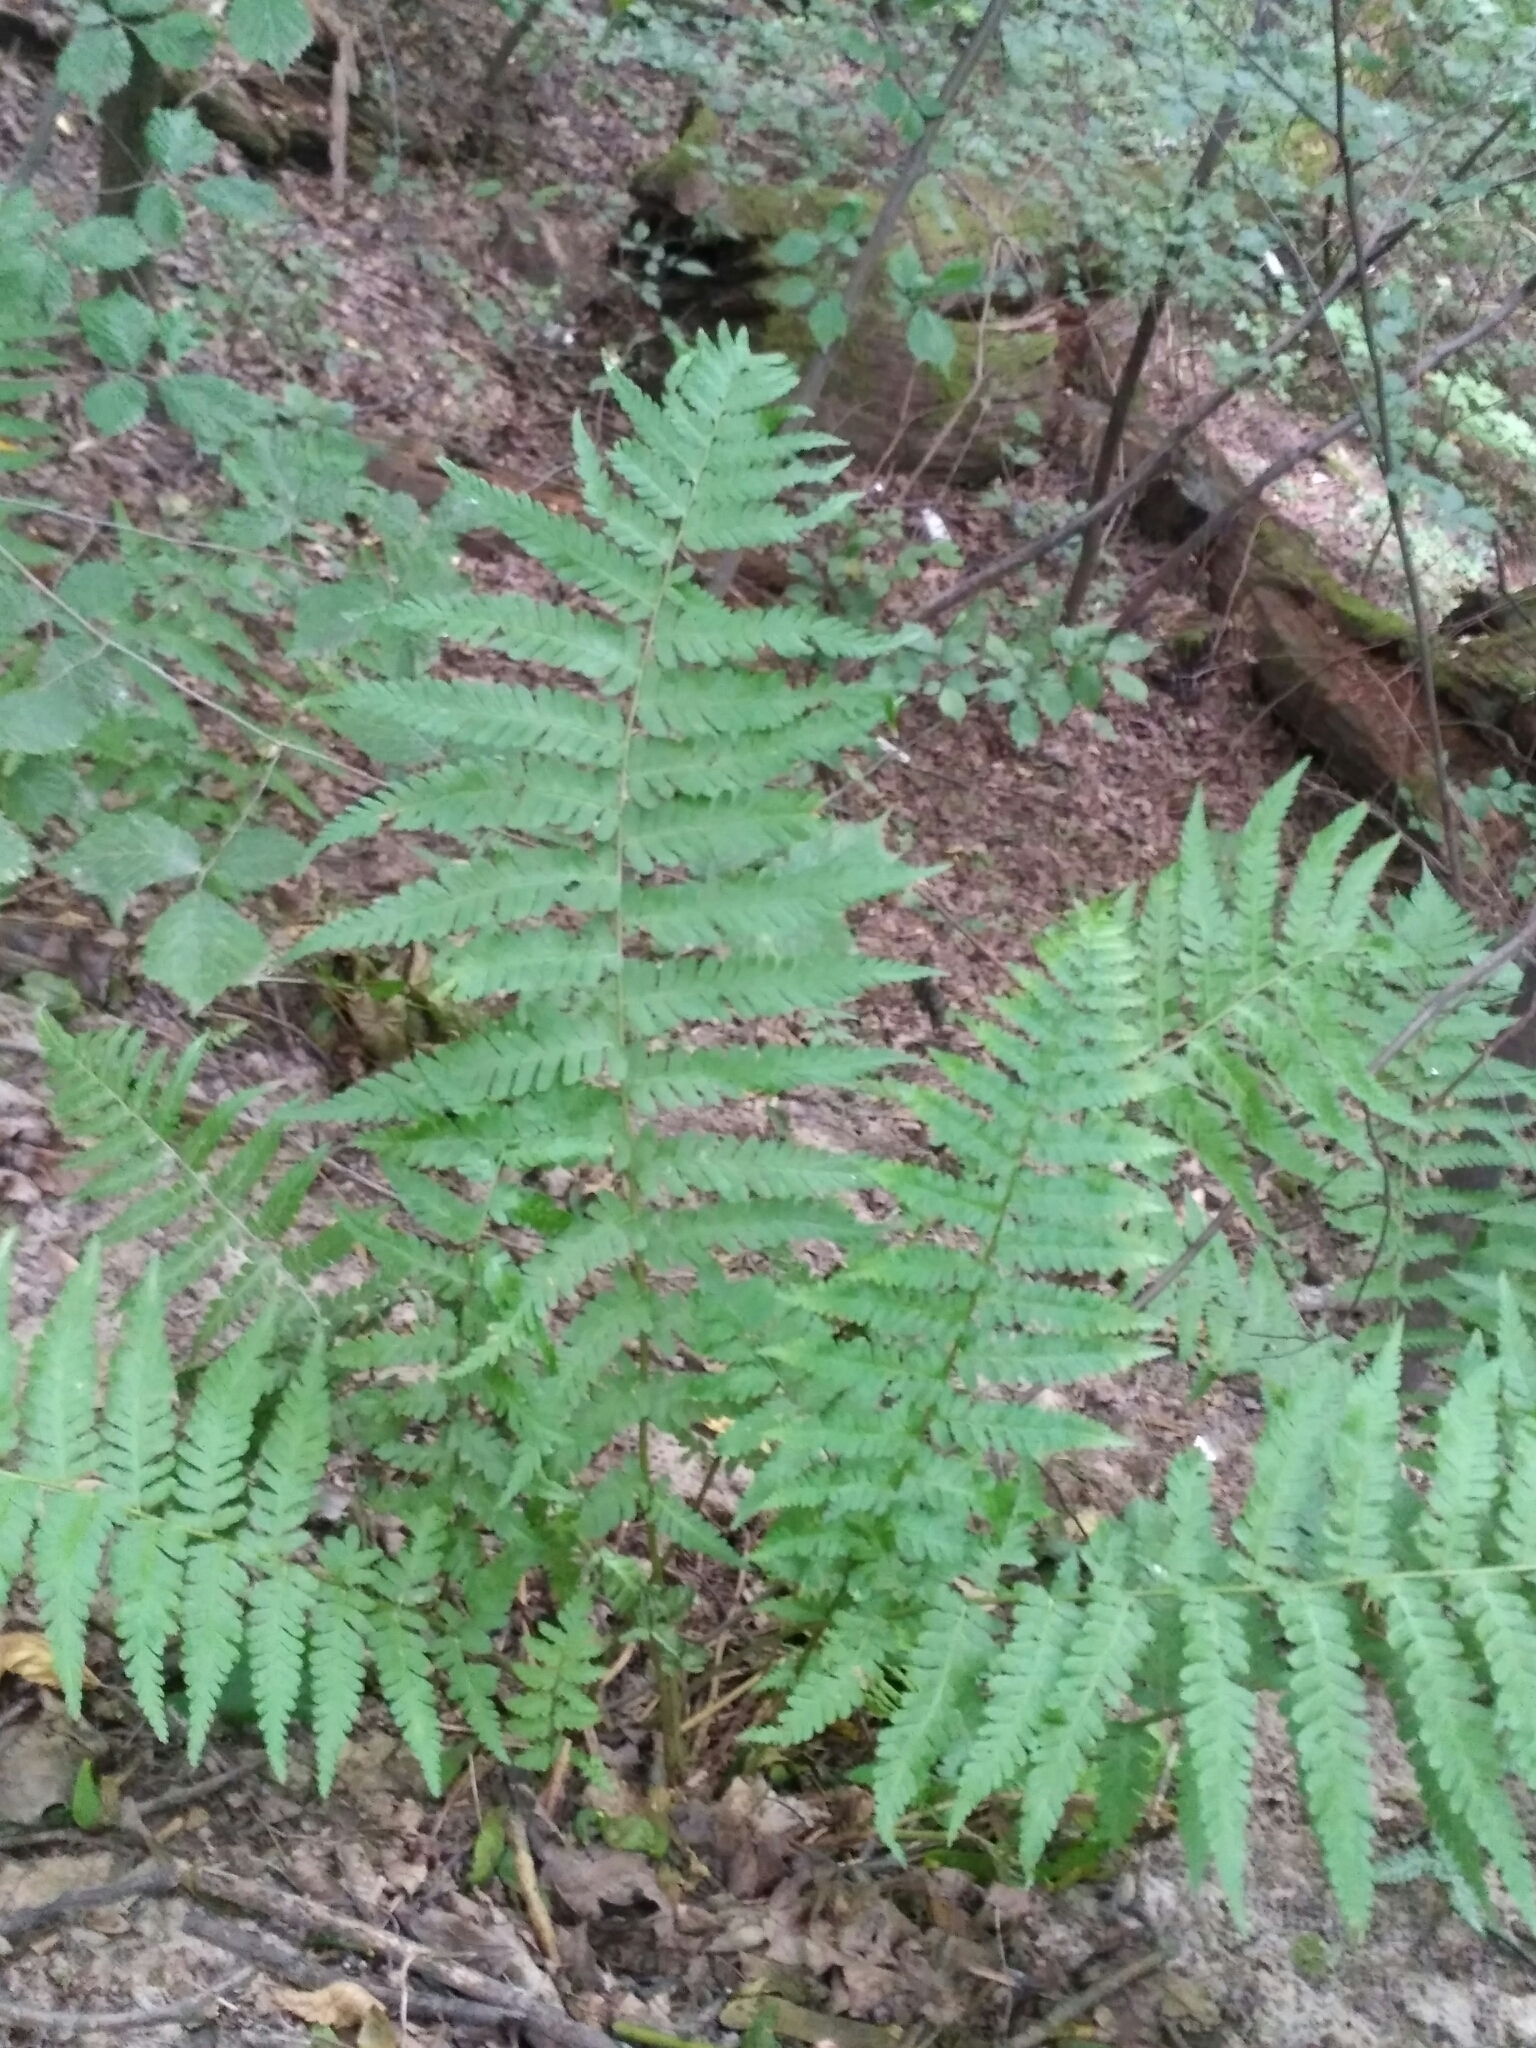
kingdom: Plantae
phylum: Tracheophyta
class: Polypodiopsida
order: Polypodiales
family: Dryopteridaceae
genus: Dryopteris
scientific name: Dryopteris filix-mas
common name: Male fern
